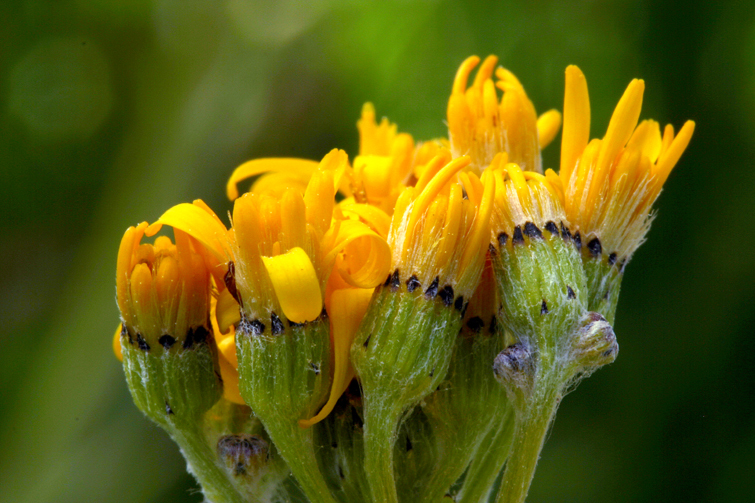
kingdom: Plantae
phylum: Tracheophyta
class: Magnoliopsida
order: Asterales
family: Asteraceae
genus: Senecio
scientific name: Senecio scorzonella
